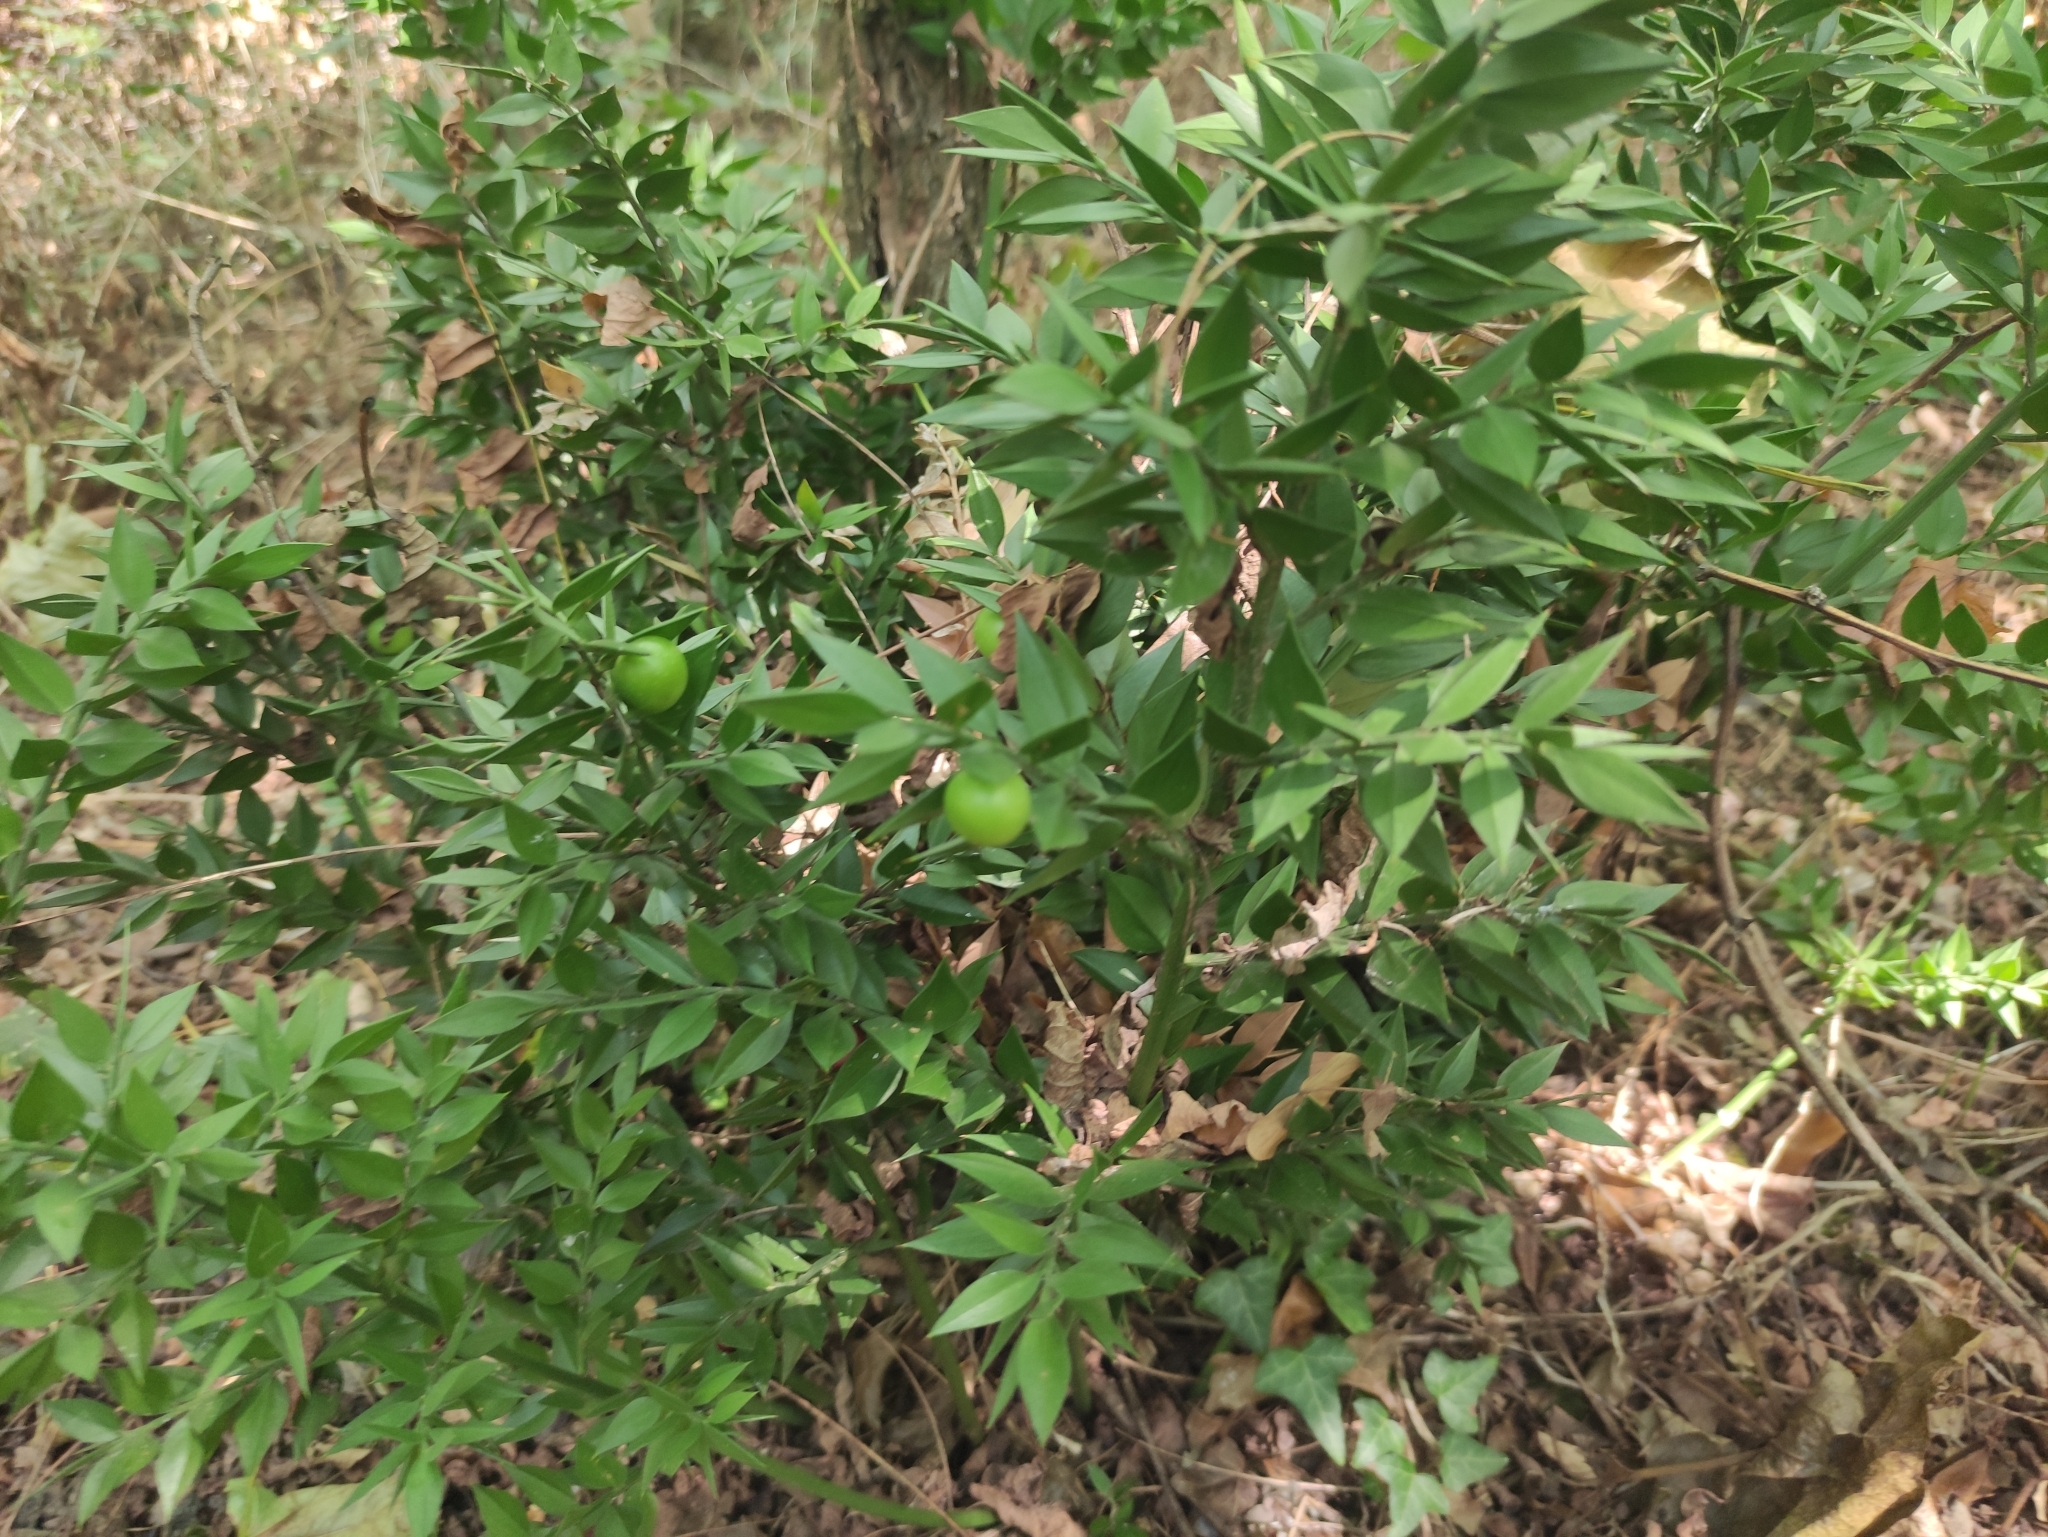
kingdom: Plantae
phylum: Tracheophyta
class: Liliopsida
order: Asparagales
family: Asparagaceae
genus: Ruscus
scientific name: Ruscus aculeatus
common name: Butcher's-broom
